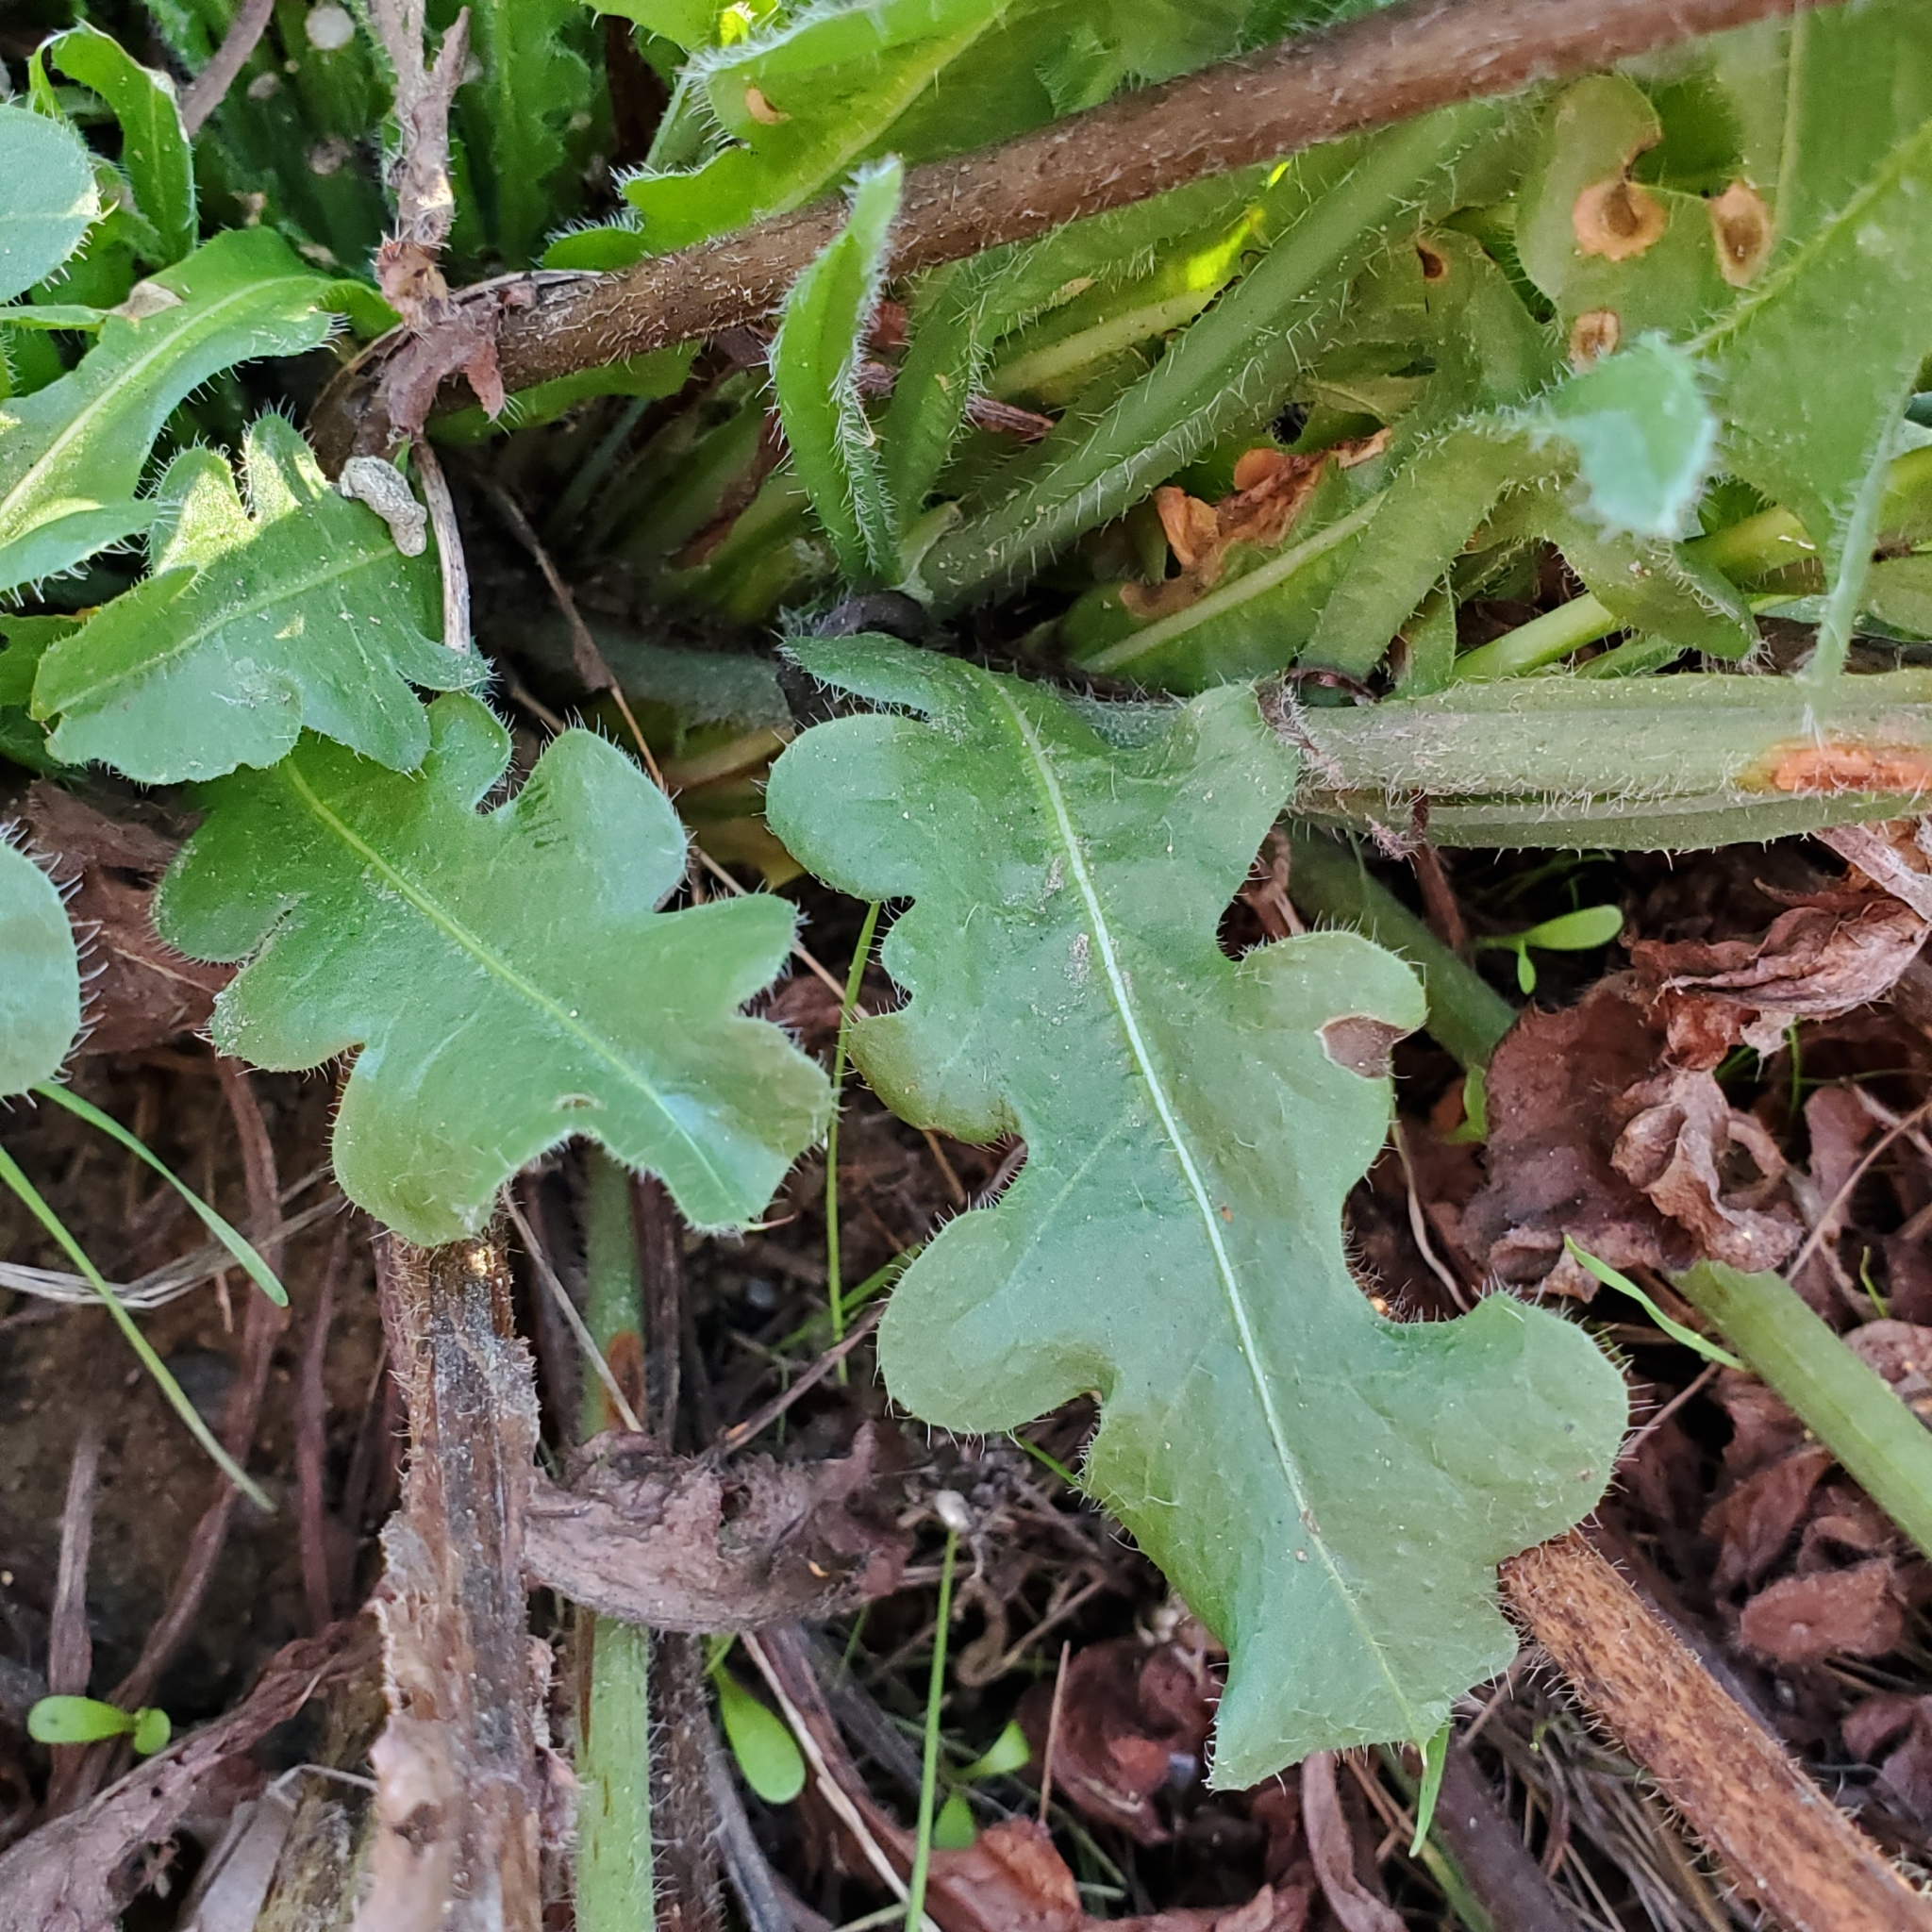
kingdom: Plantae
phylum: Tracheophyta
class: Magnoliopsida
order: Caryophyllales
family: Plumbaginaceae
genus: Limonium
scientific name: Limonium sinuatum
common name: Statice
